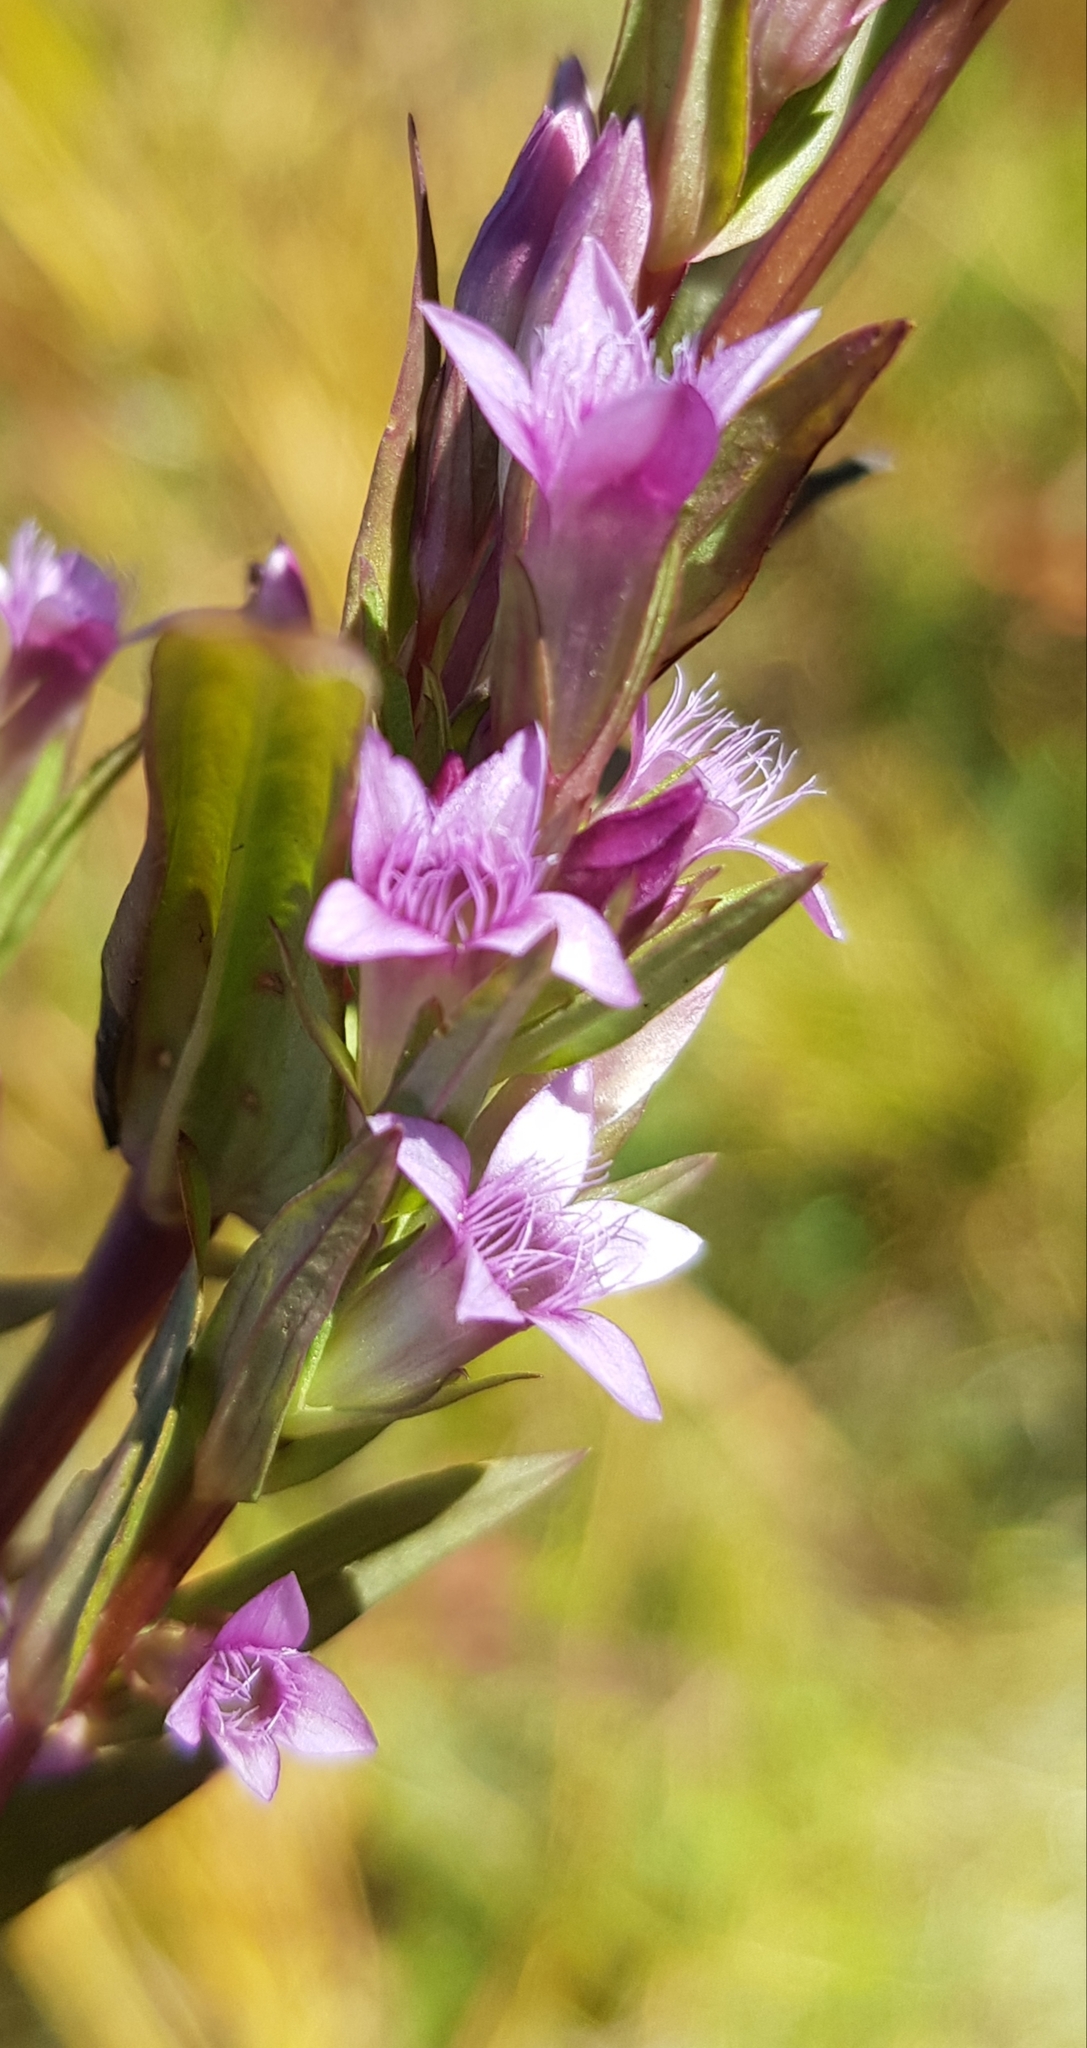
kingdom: Plantae
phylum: Tracheophyta
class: Magnoliopsida
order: Gentianales
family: Gentianaceae
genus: Gentianella
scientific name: Gentianella amarella
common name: Autumn gentian
